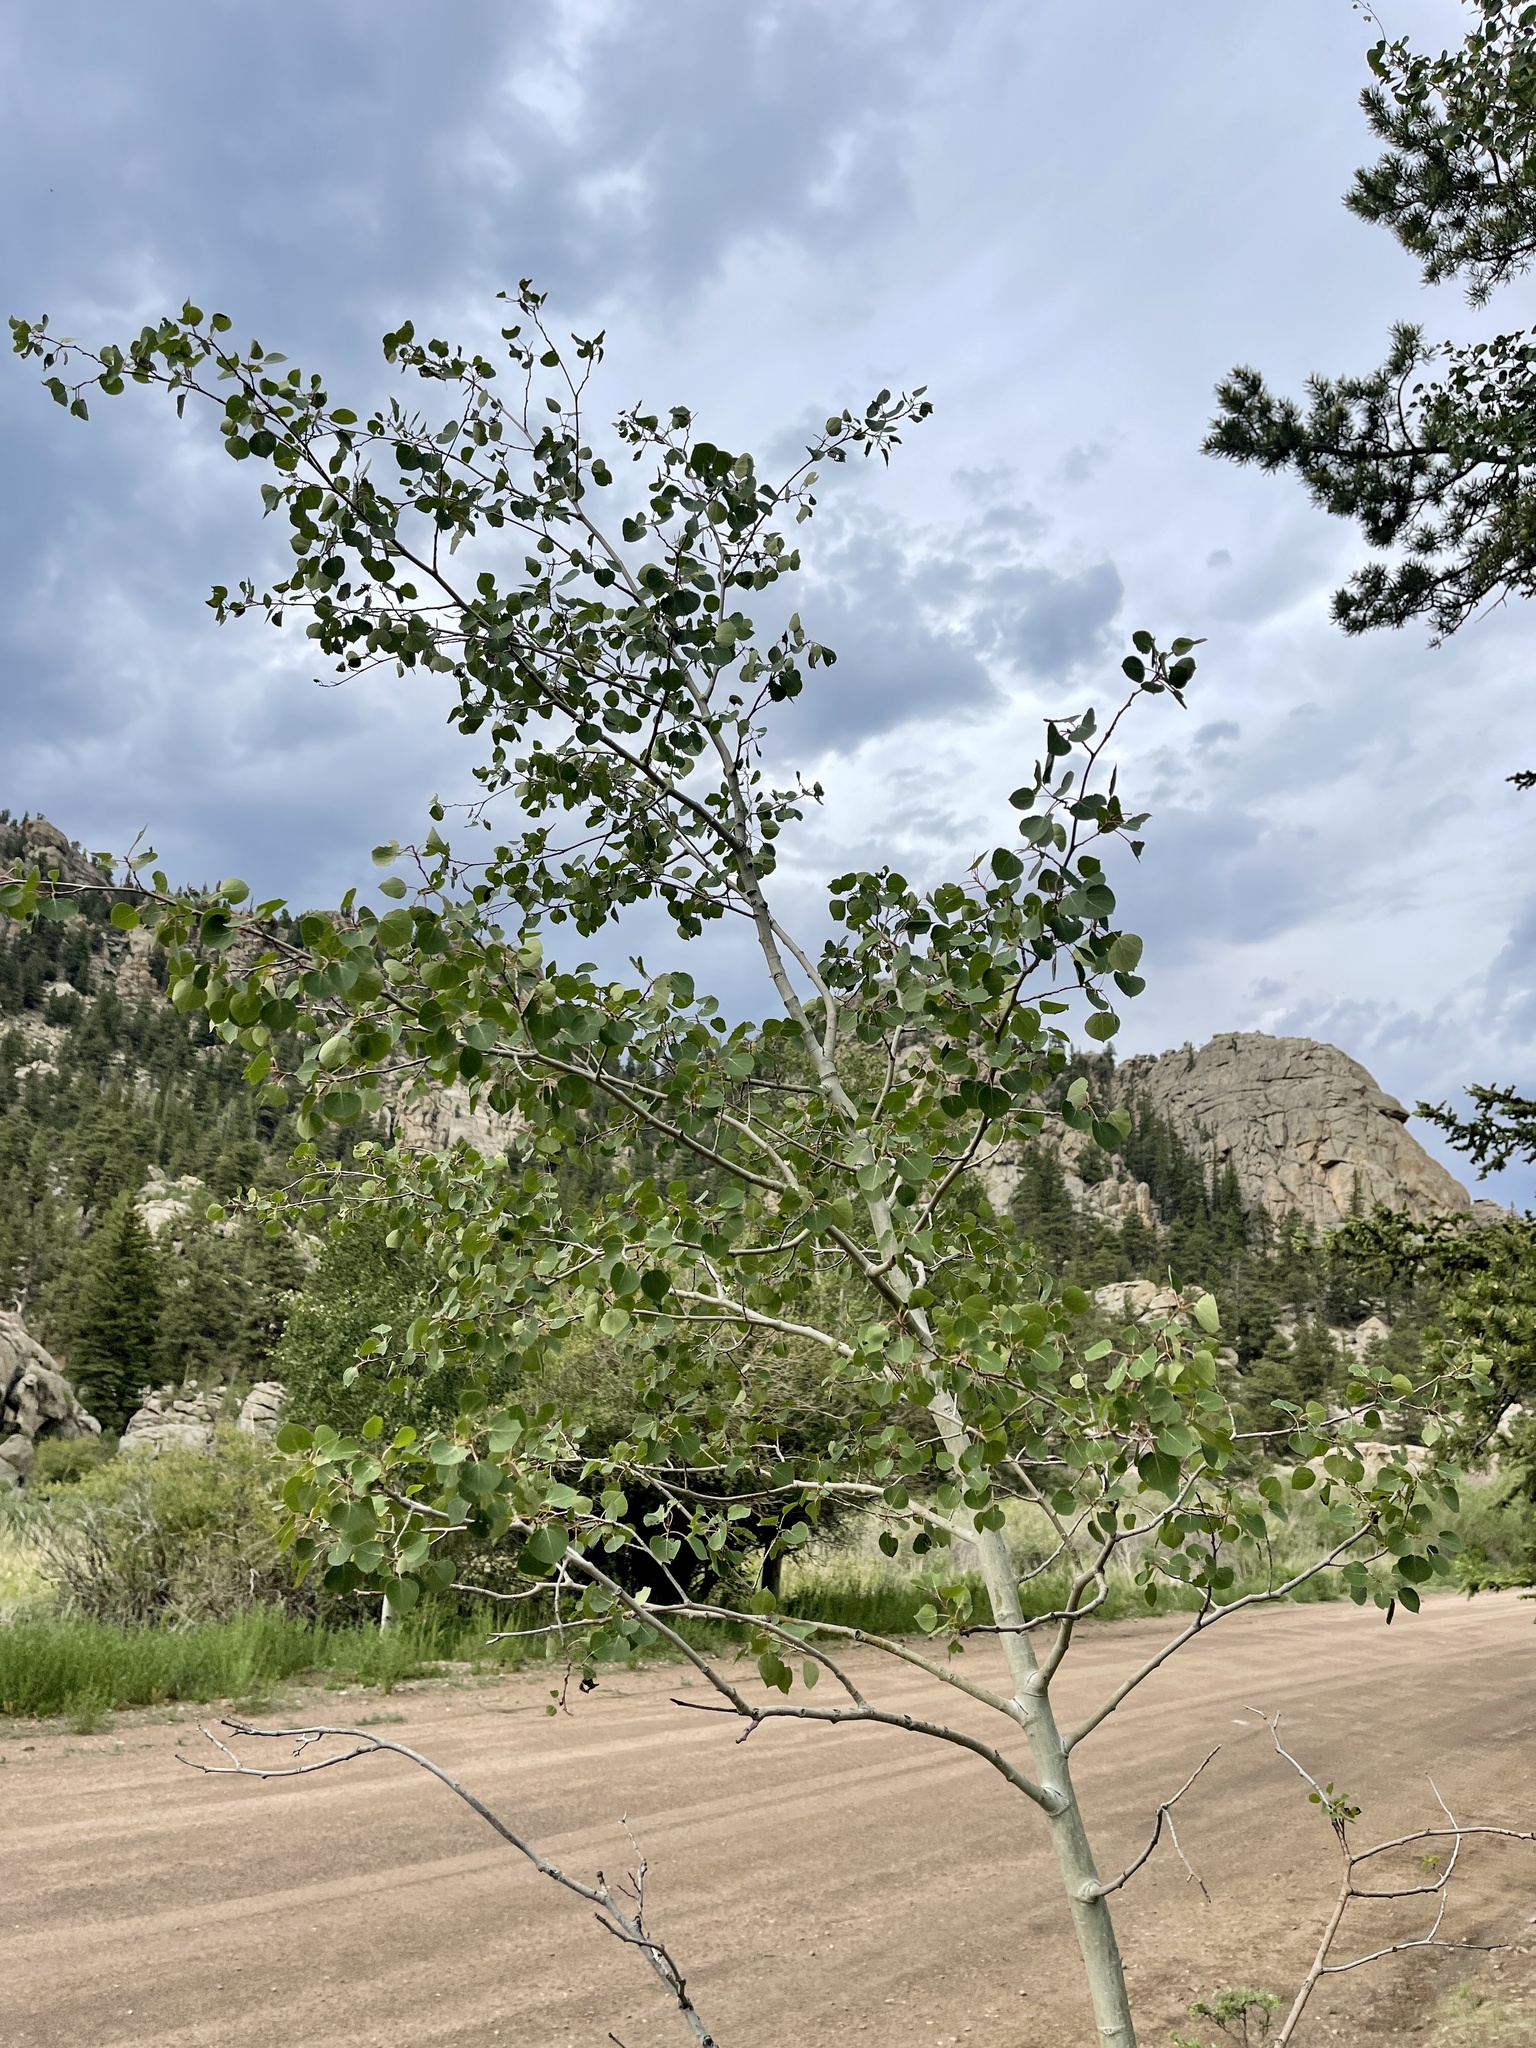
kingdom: Plantae
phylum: Tracheophyta
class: Magnoliopsida
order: Malpighiales
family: Salicaceae
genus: Populus
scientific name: Populus tremuloides
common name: Quaking aspen
